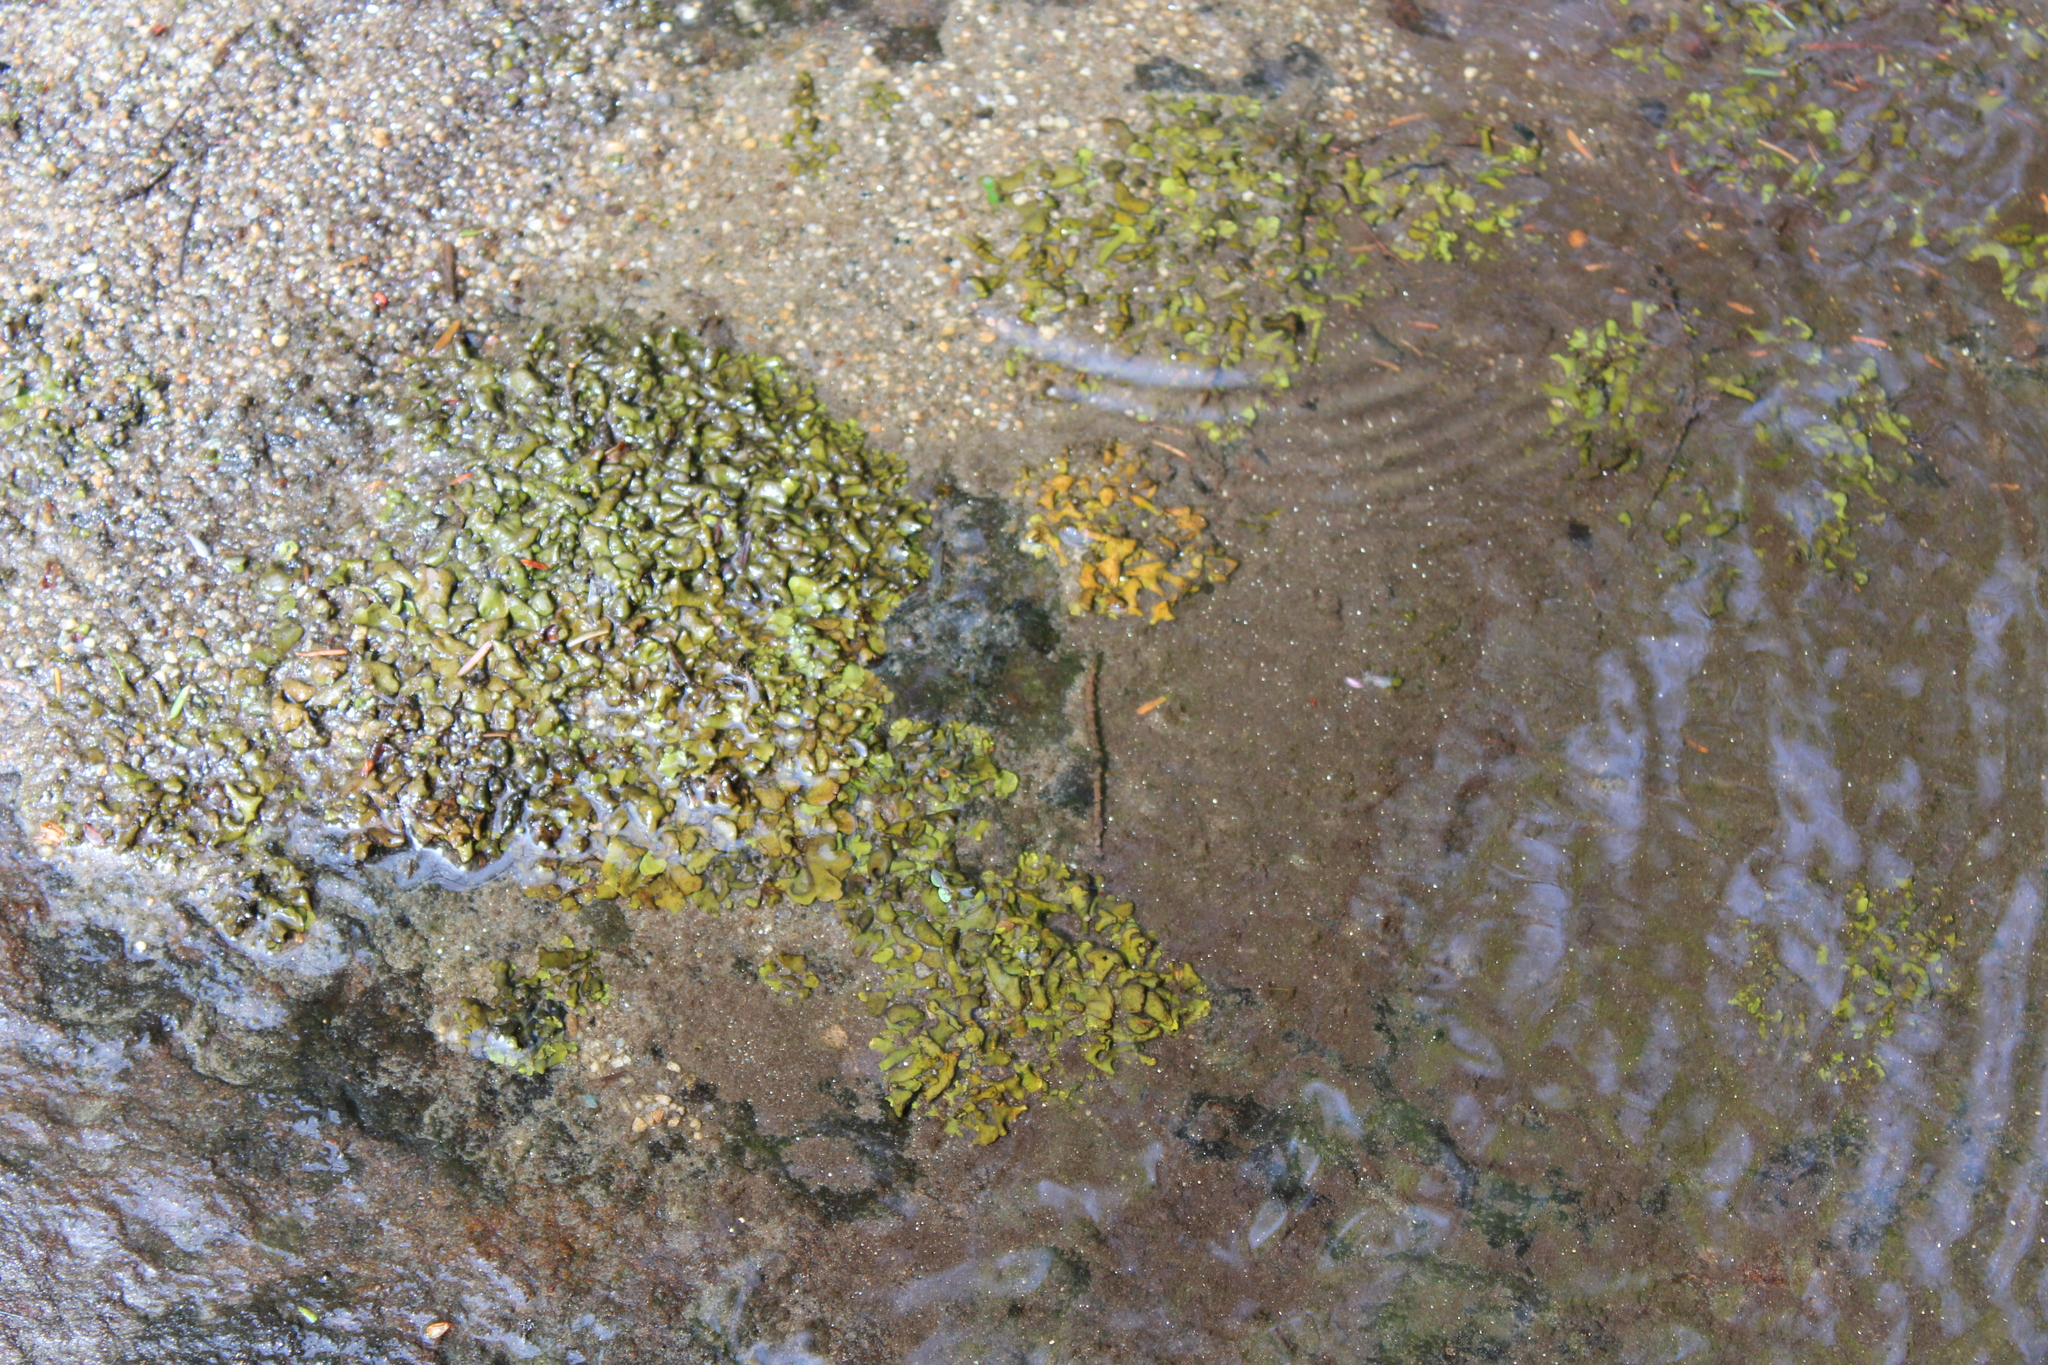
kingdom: Fungi
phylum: Ascomycota
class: Eurotiomycetes
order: Verrucariales
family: Verrucariaceae
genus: Dermatocarpon
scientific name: Dermatocarpon luridum
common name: Brook stippleback lichen
